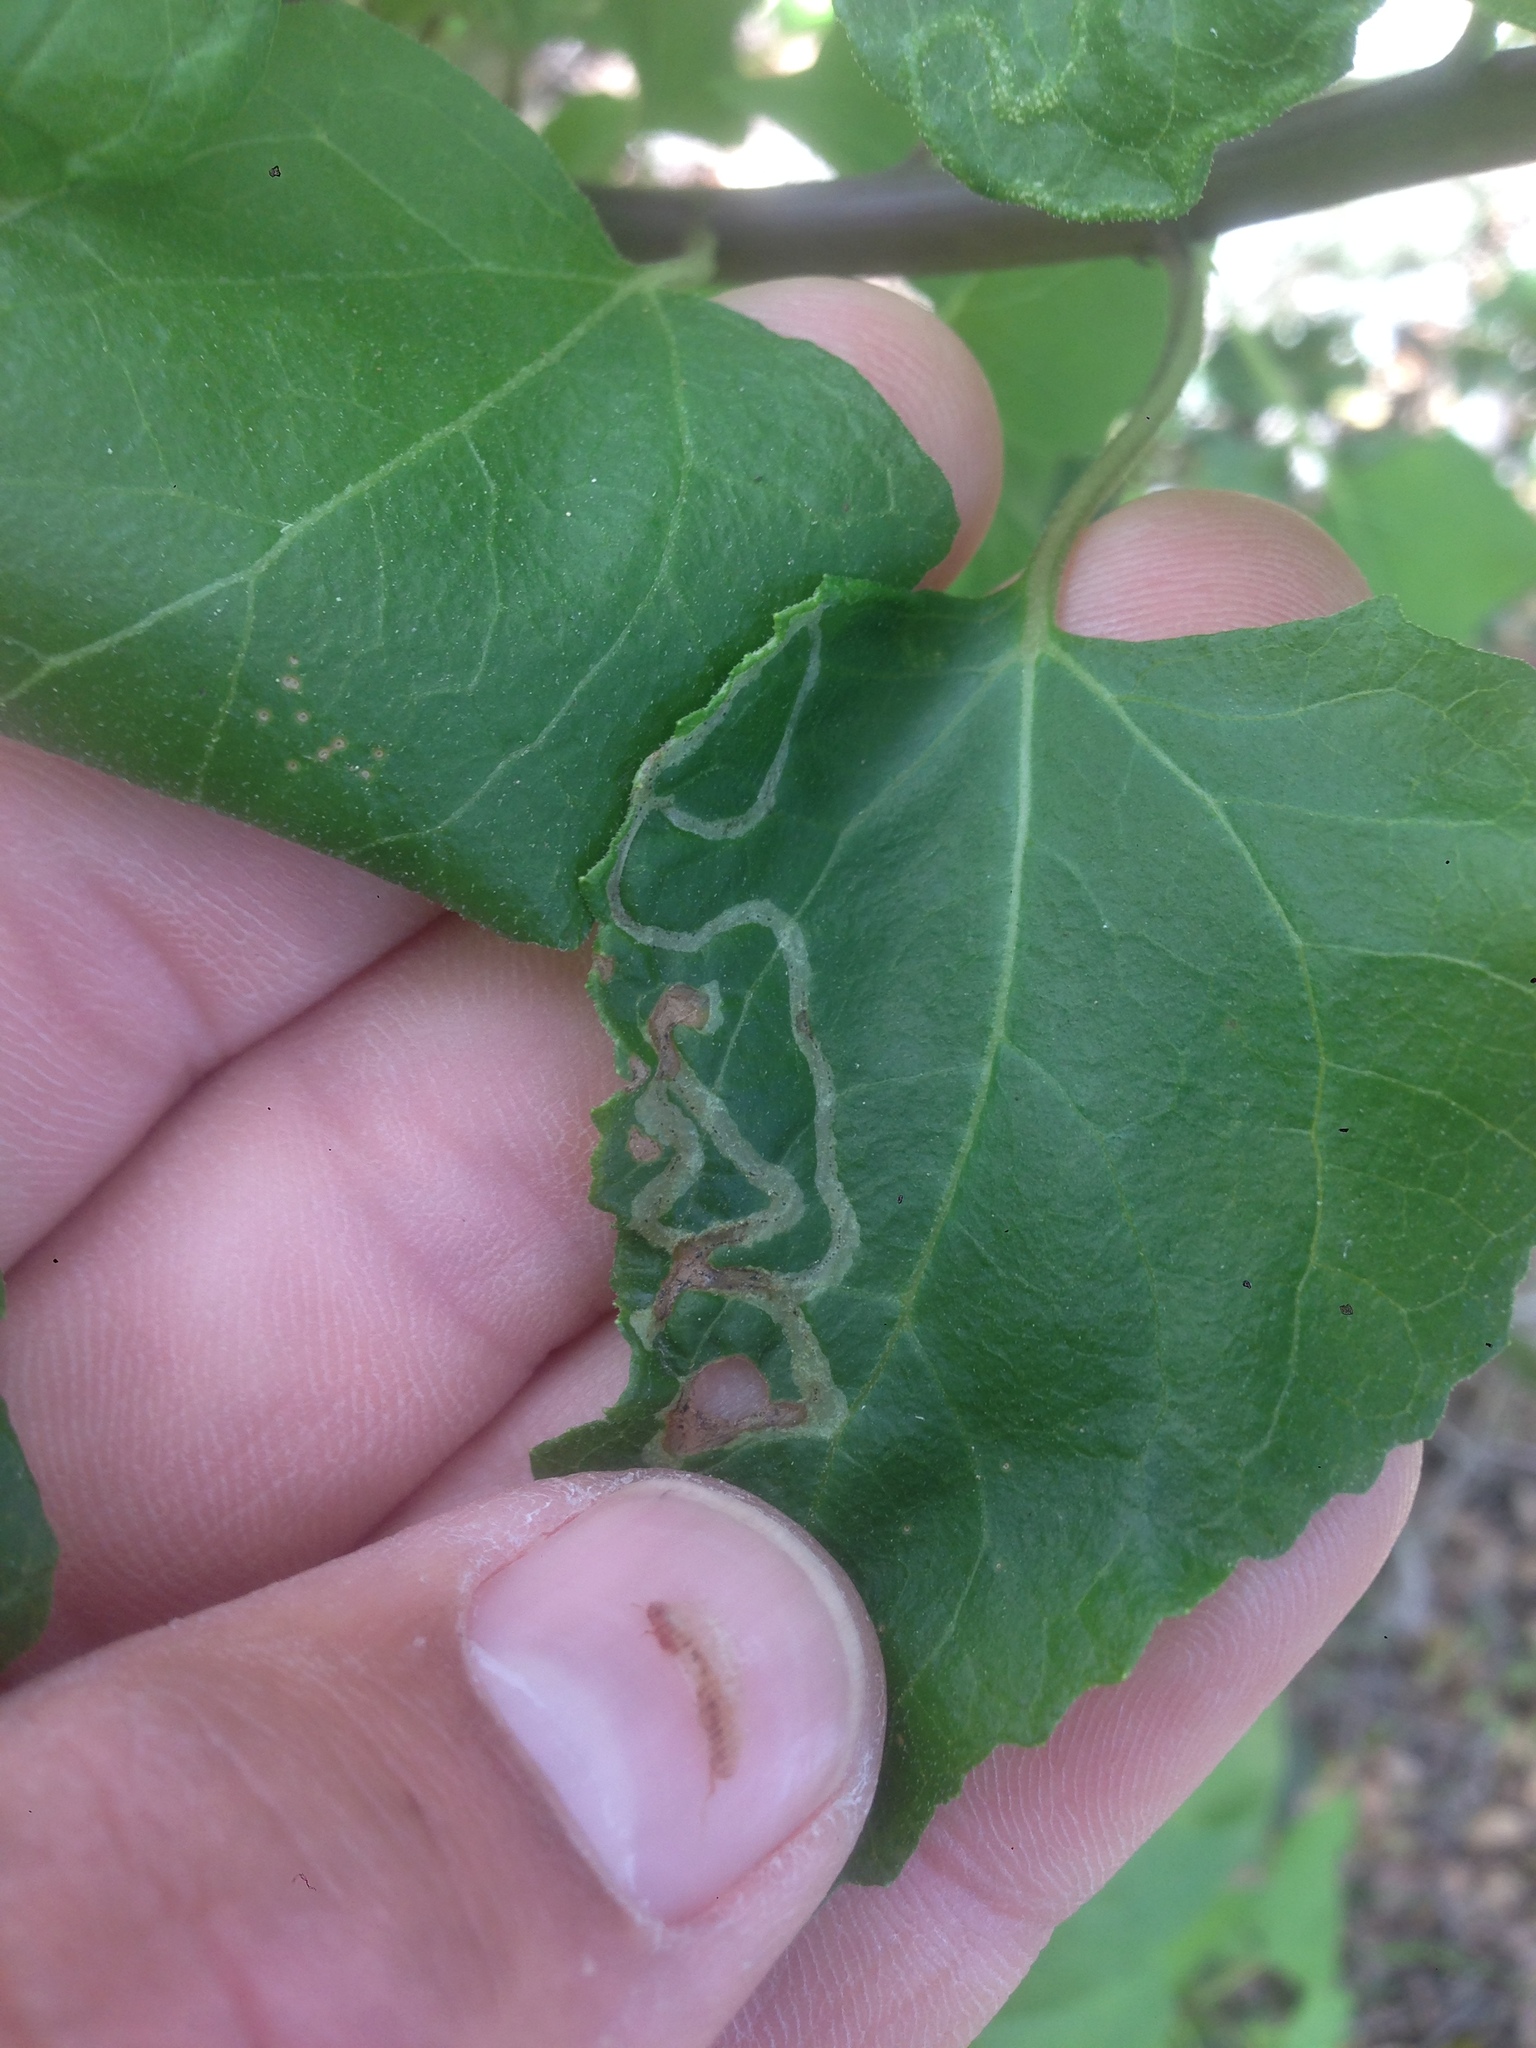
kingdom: Plantae
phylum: Tracheophyta
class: Magnoliopsida
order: Asterales
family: Asteraceae
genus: Venegasia
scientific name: Venegasia carpesioides
